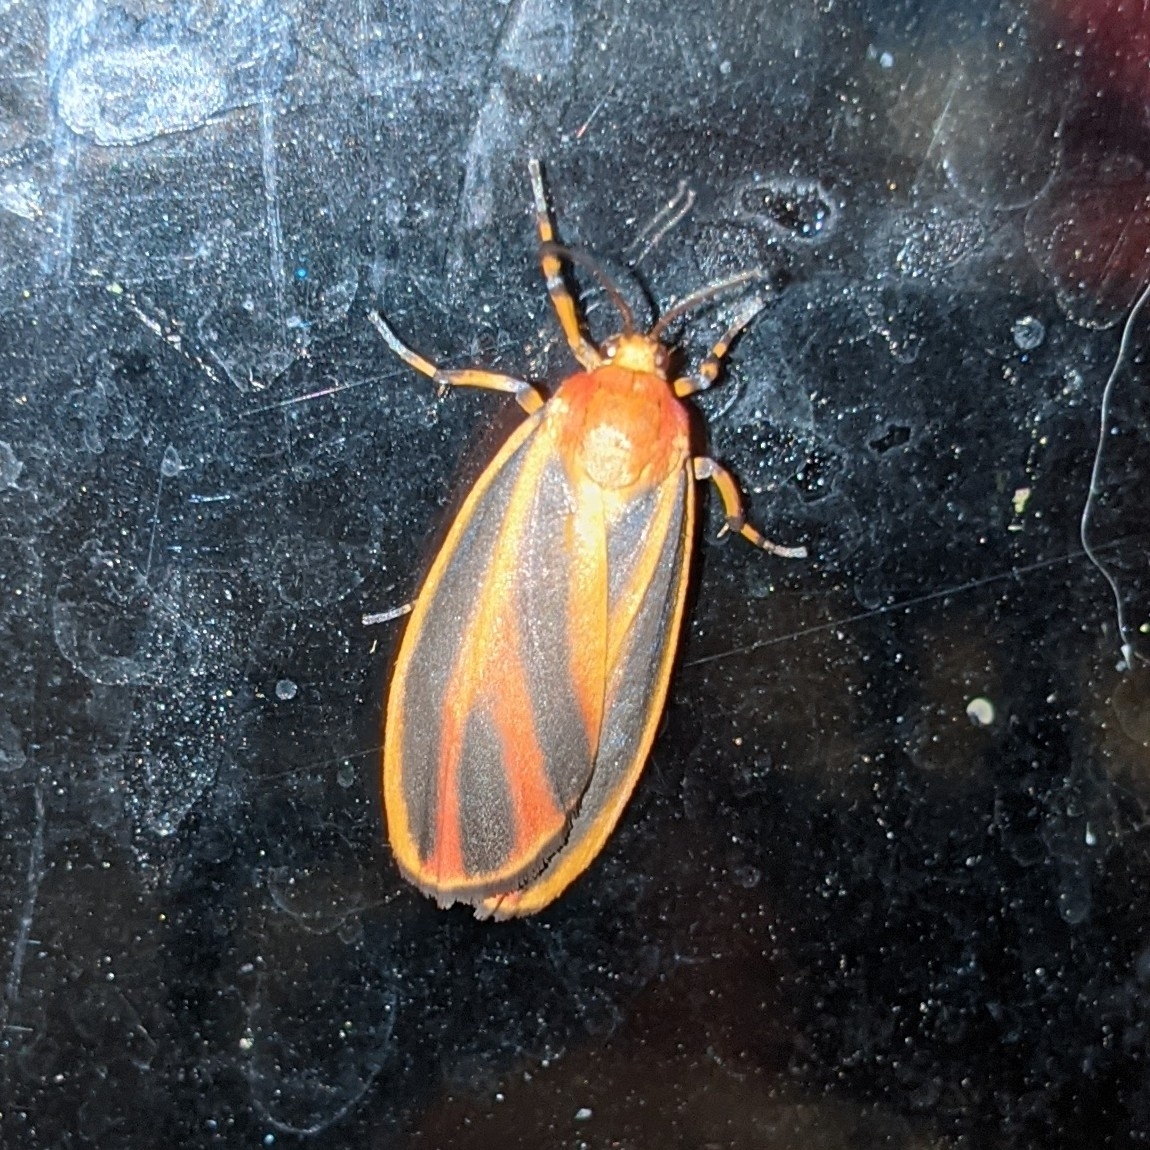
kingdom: Animalia
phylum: Arthropoda
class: Insecta
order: Lepidoptera
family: Erebidae
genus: Hypoprepia
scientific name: Hypoprepia fucosa
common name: Painted lichen moth
